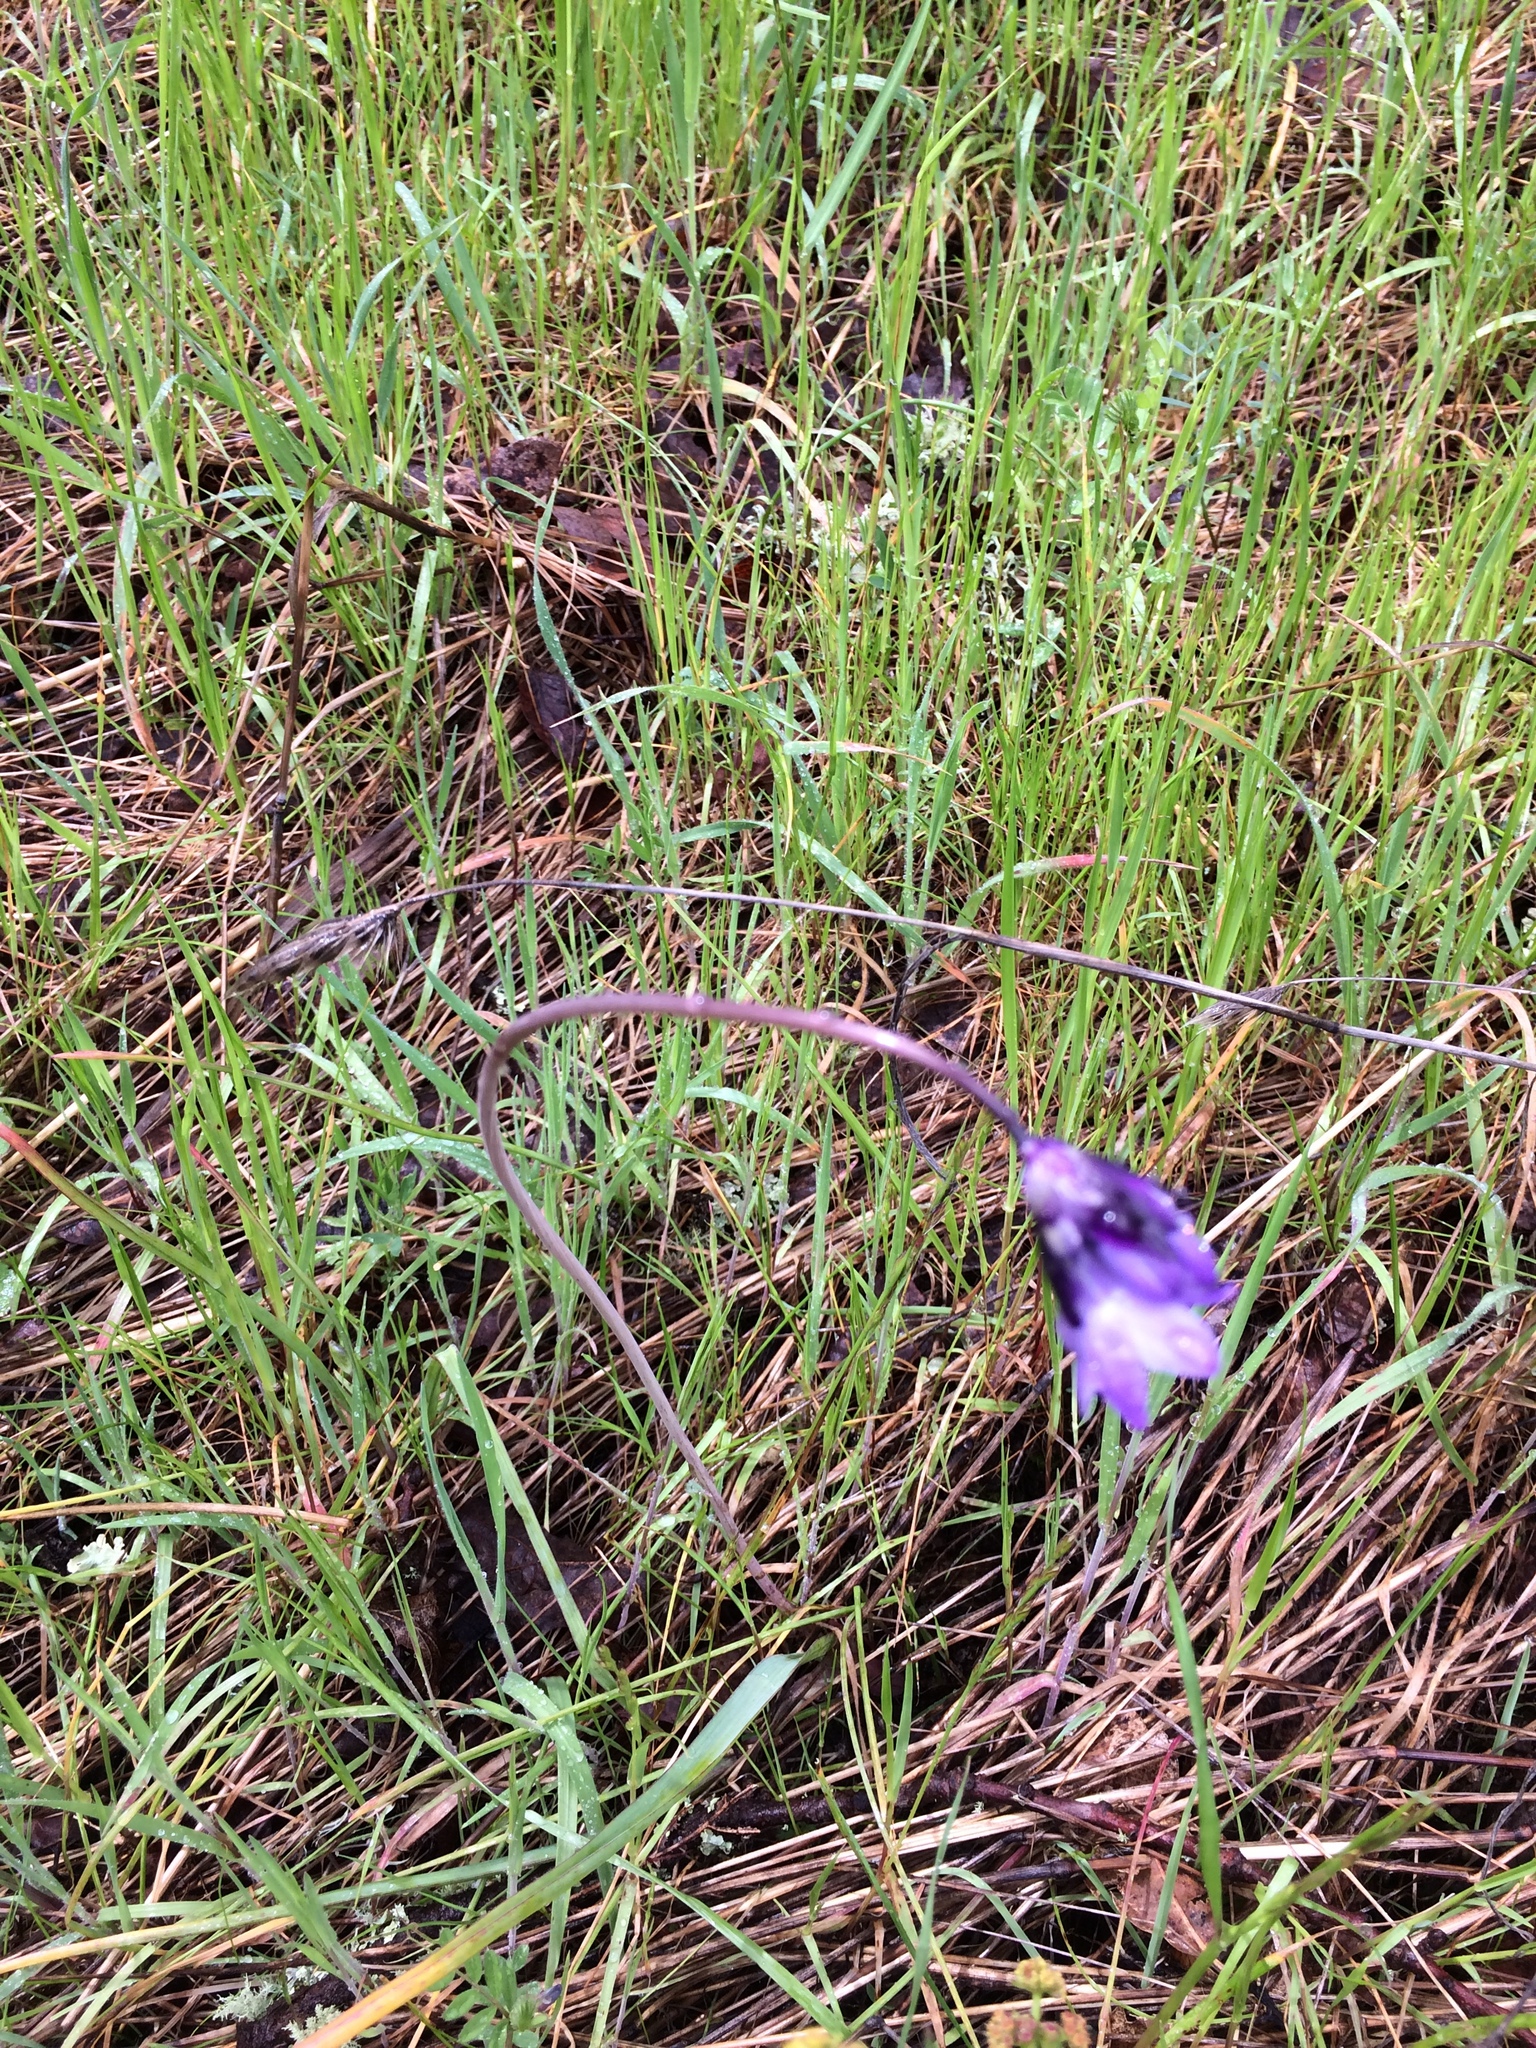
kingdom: Plantae
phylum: Tracheophyta
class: Liliopsida
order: Asparagales
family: Asparagaceae
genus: Dipterostemon
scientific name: Dipterostemon capitatus
